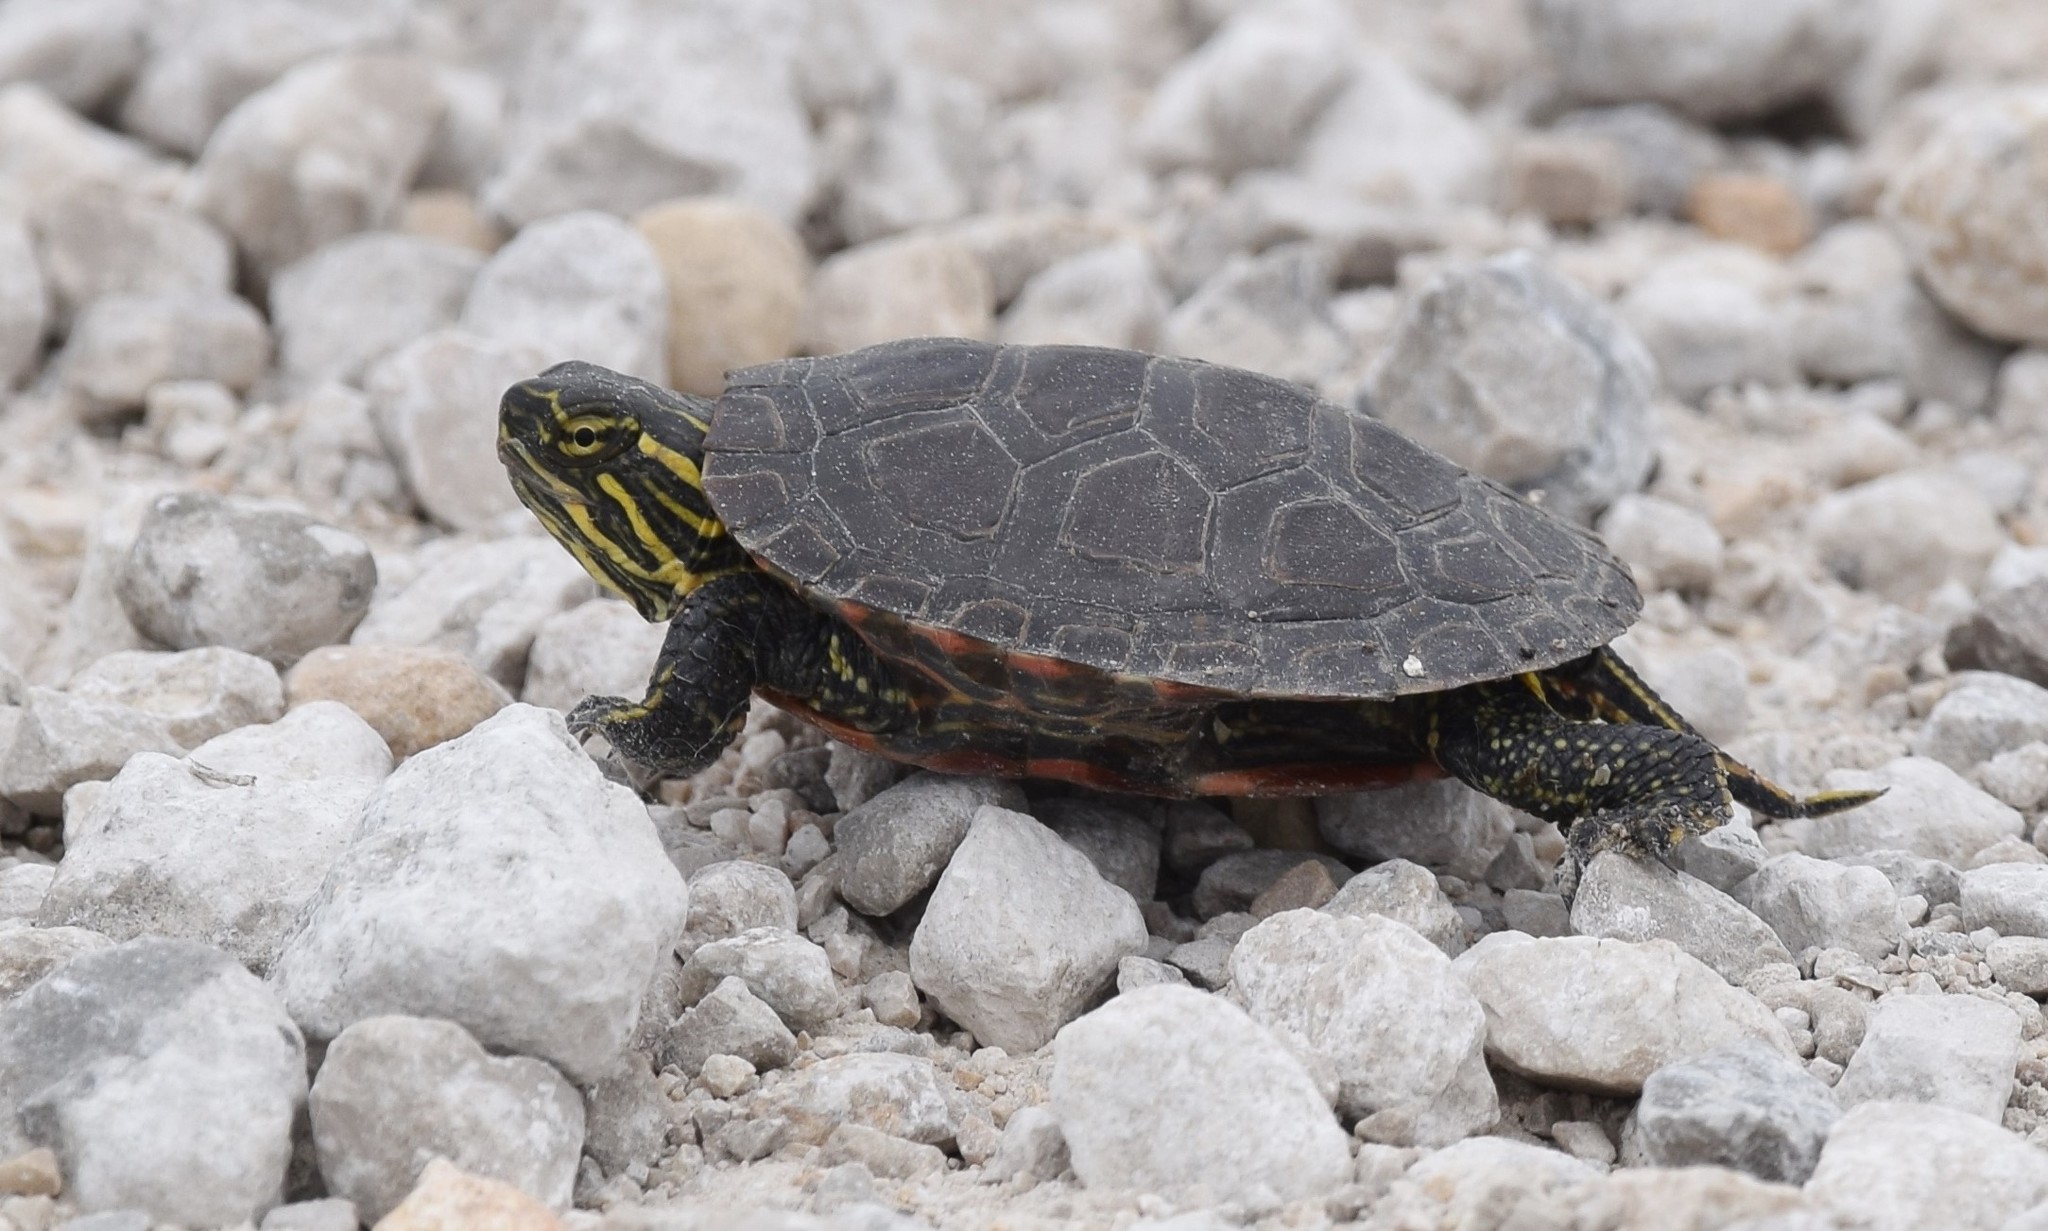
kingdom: Animalia
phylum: Chordata
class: Testudines
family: Emydidae
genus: Chrysemys
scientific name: Chrysemys picta
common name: Painted turtle
